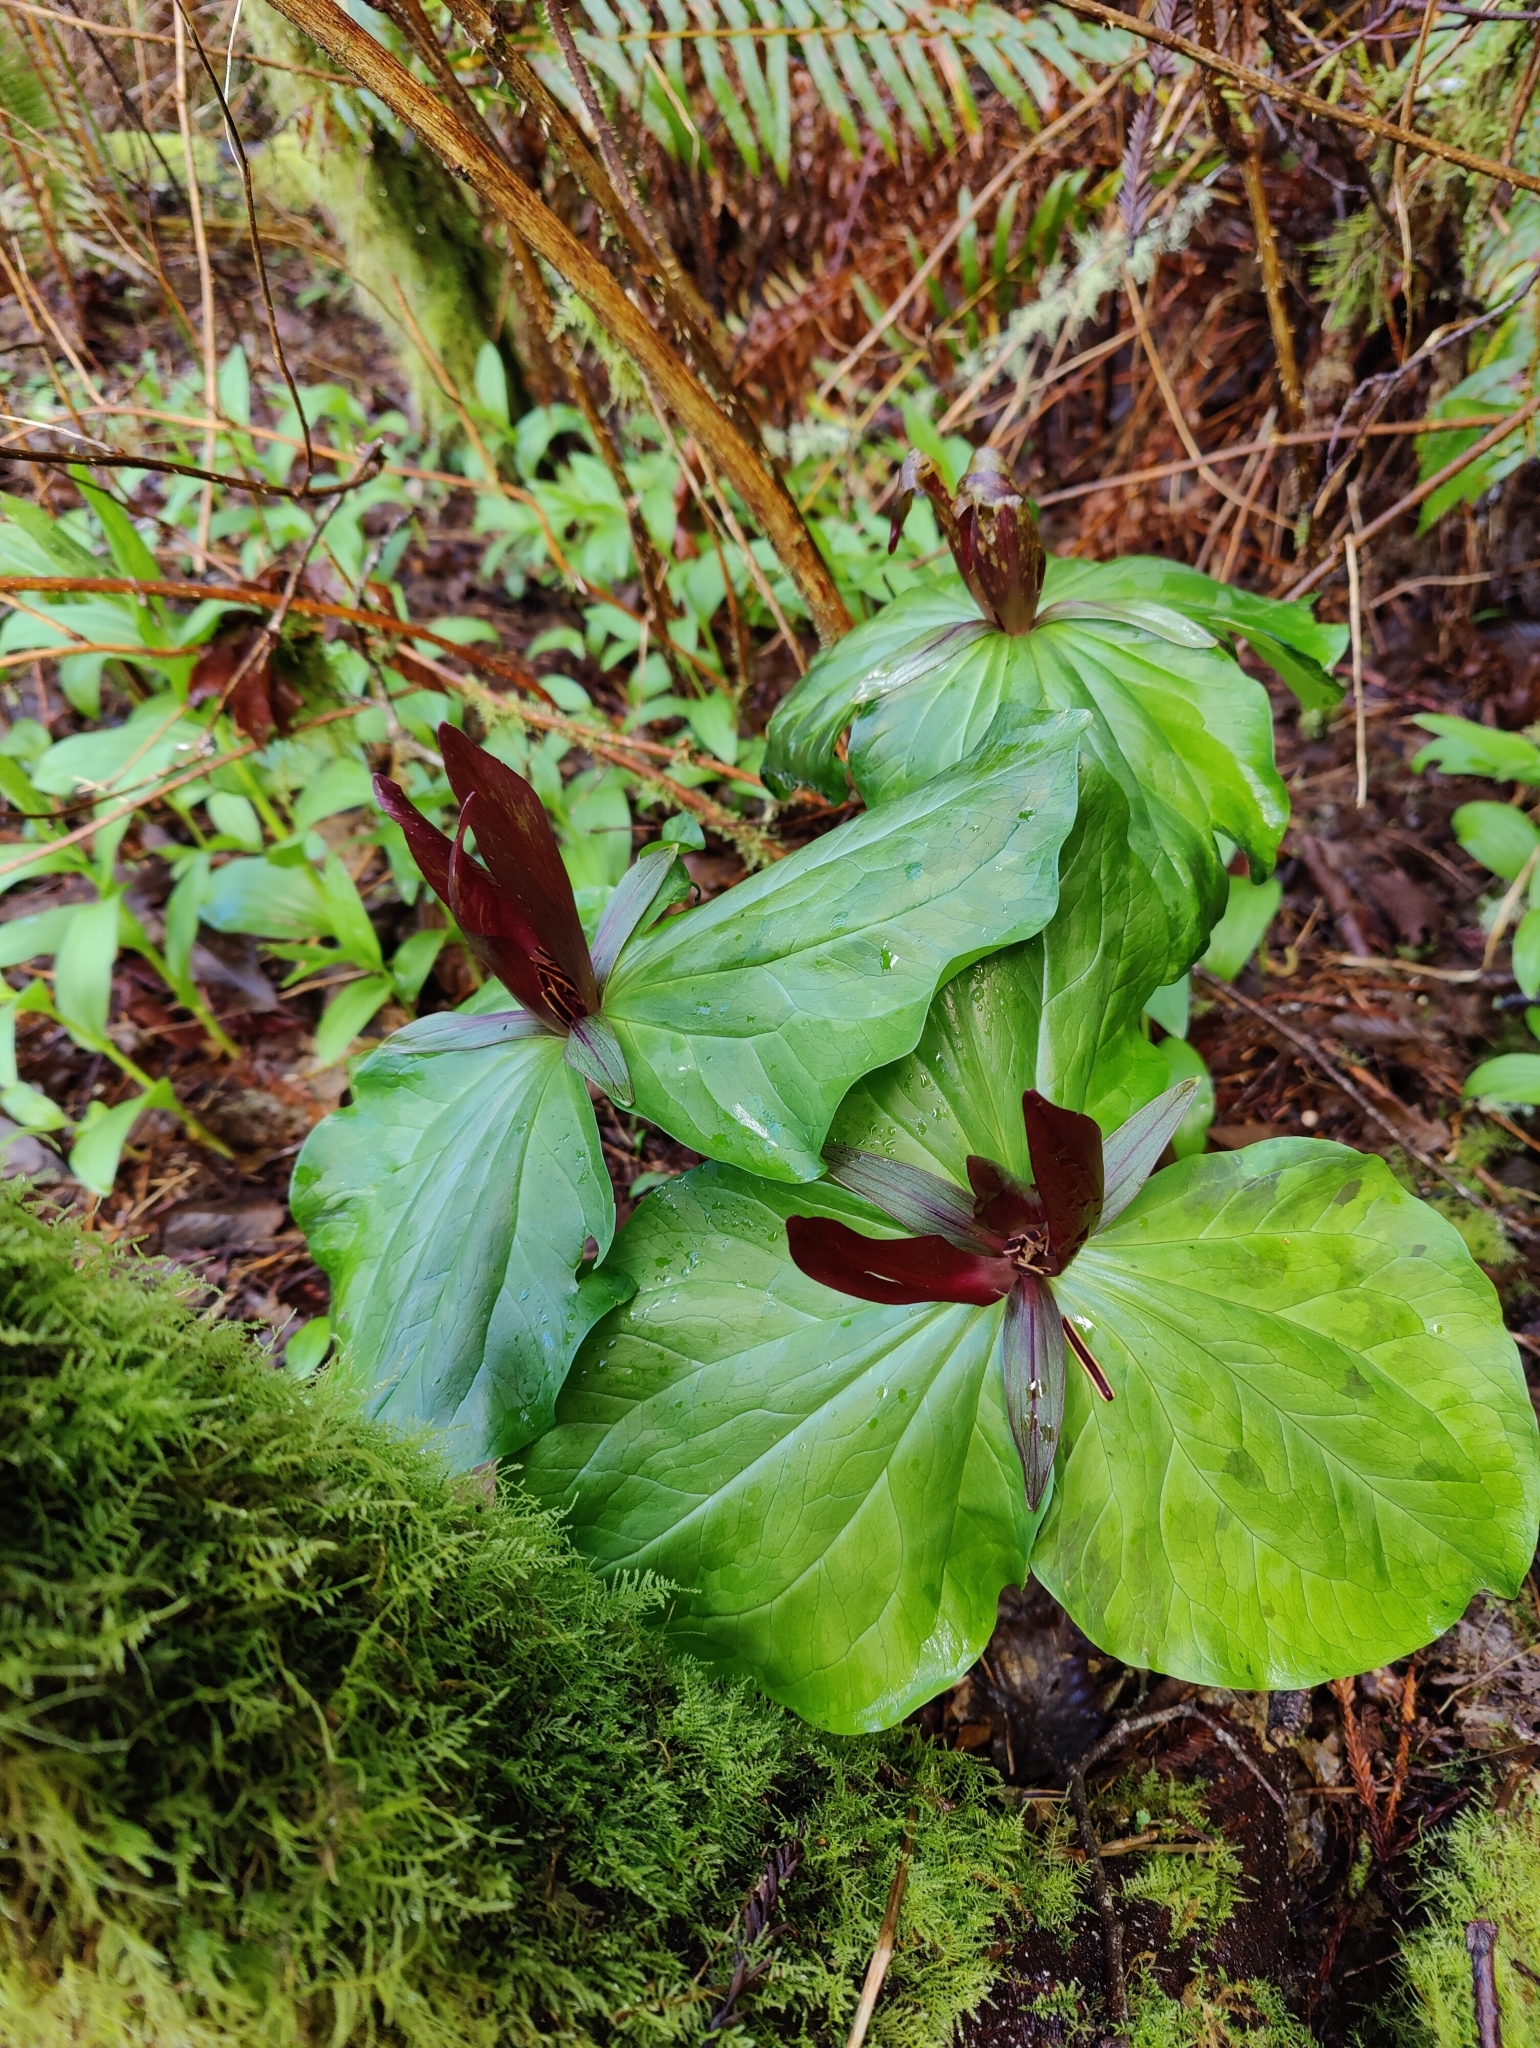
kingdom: Plantae
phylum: Tracheophyta
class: Liliopsida
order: Liliales
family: Melanthiaceae
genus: Trillium
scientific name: Trillium kurabayashii
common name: Giant purple trillium
